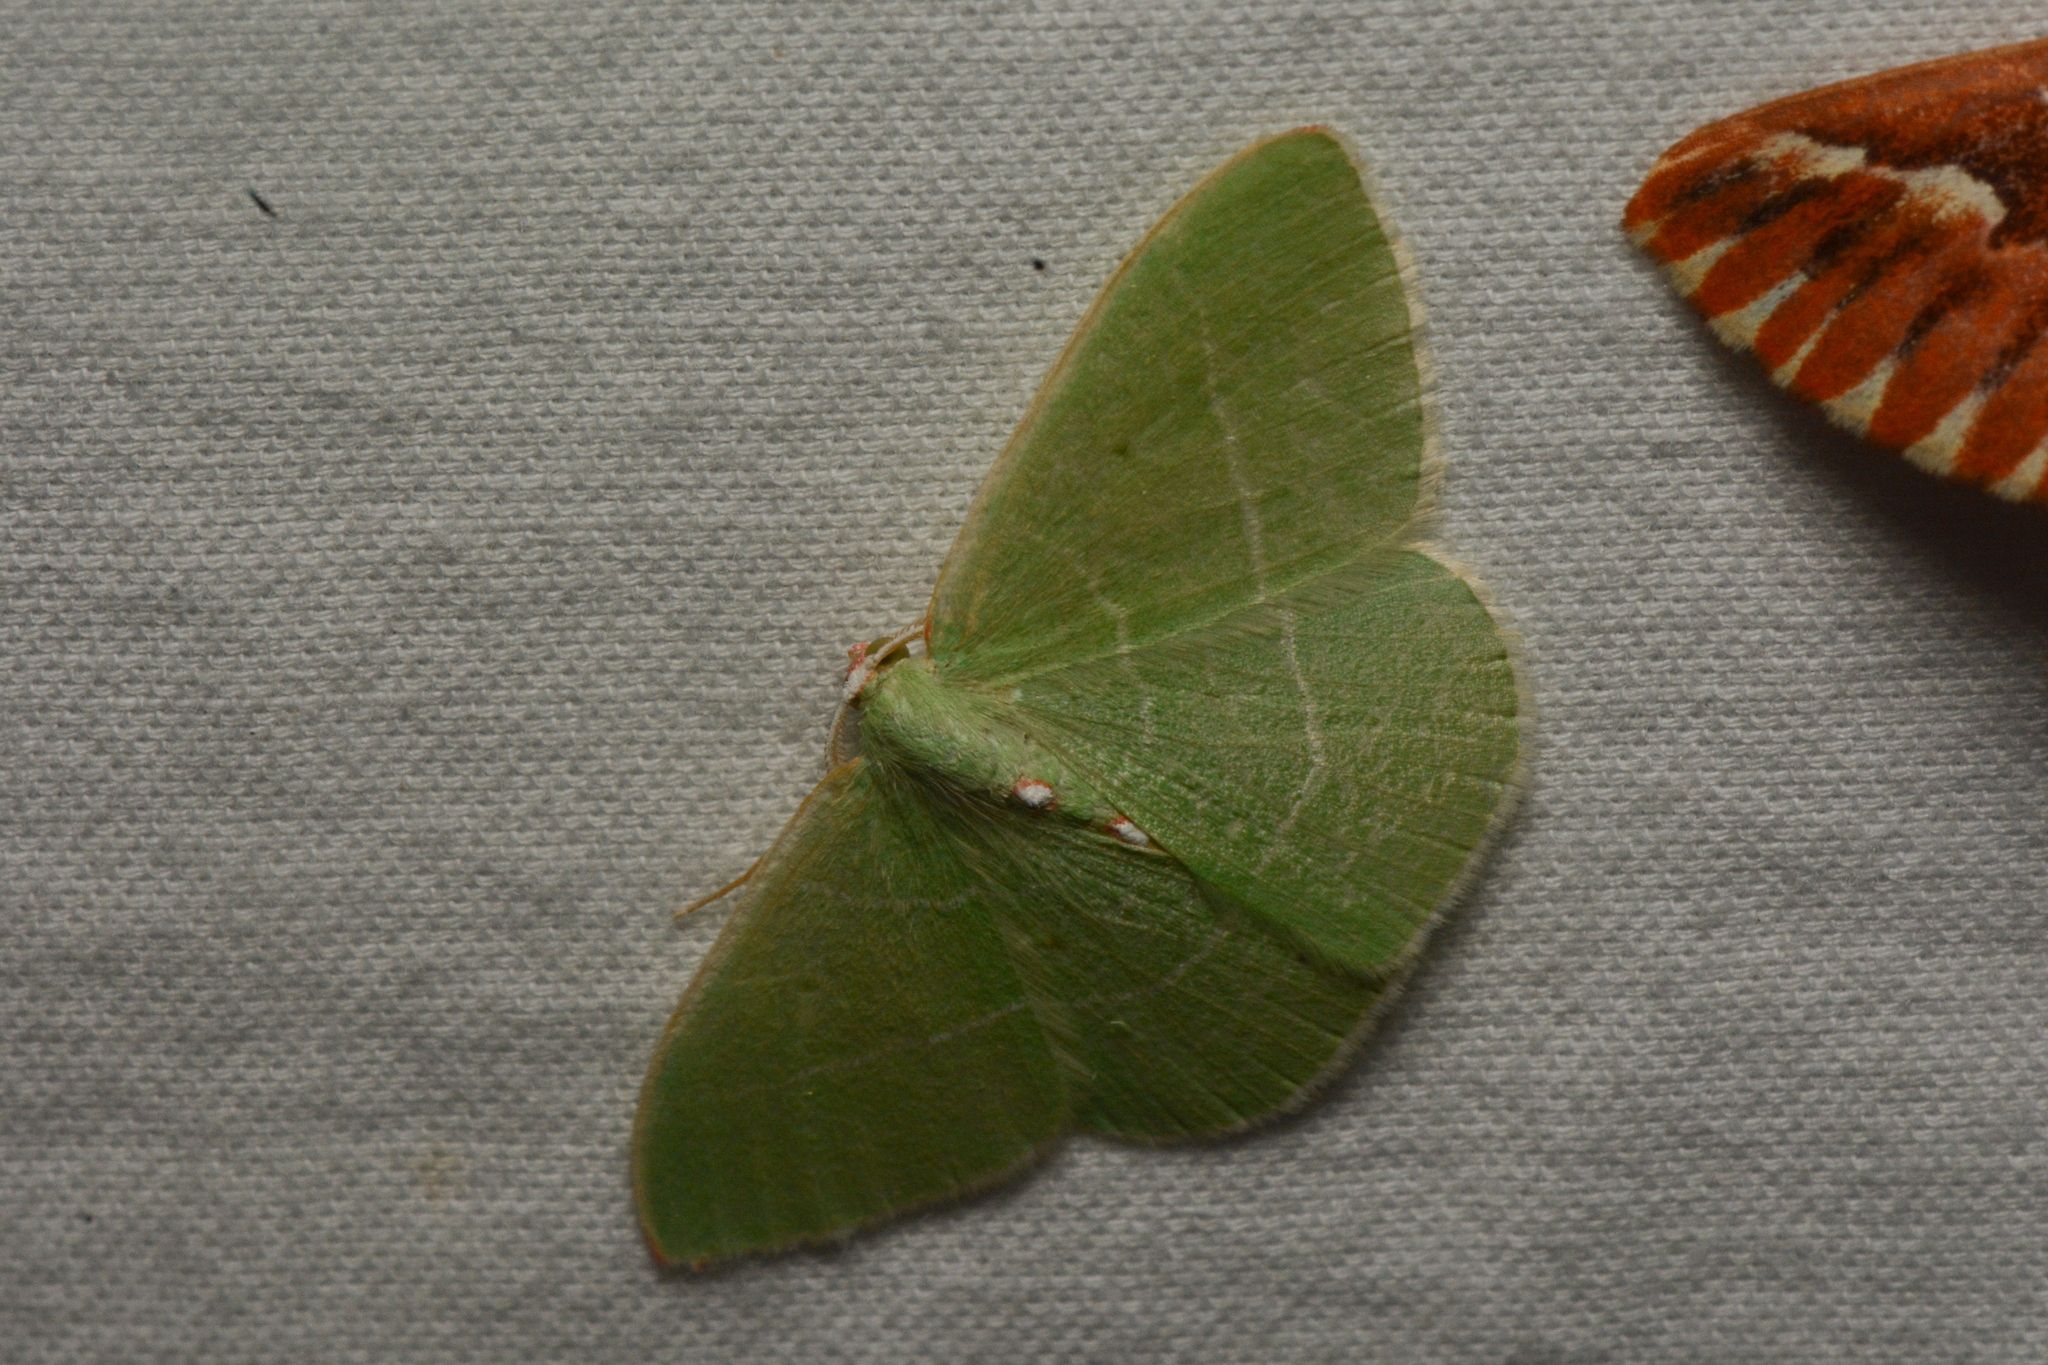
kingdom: Animalia
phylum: Arthropoda
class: Insecta
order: Lepidoptera
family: Geometridae
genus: Nemoria
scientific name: Nemoria darwiniata
